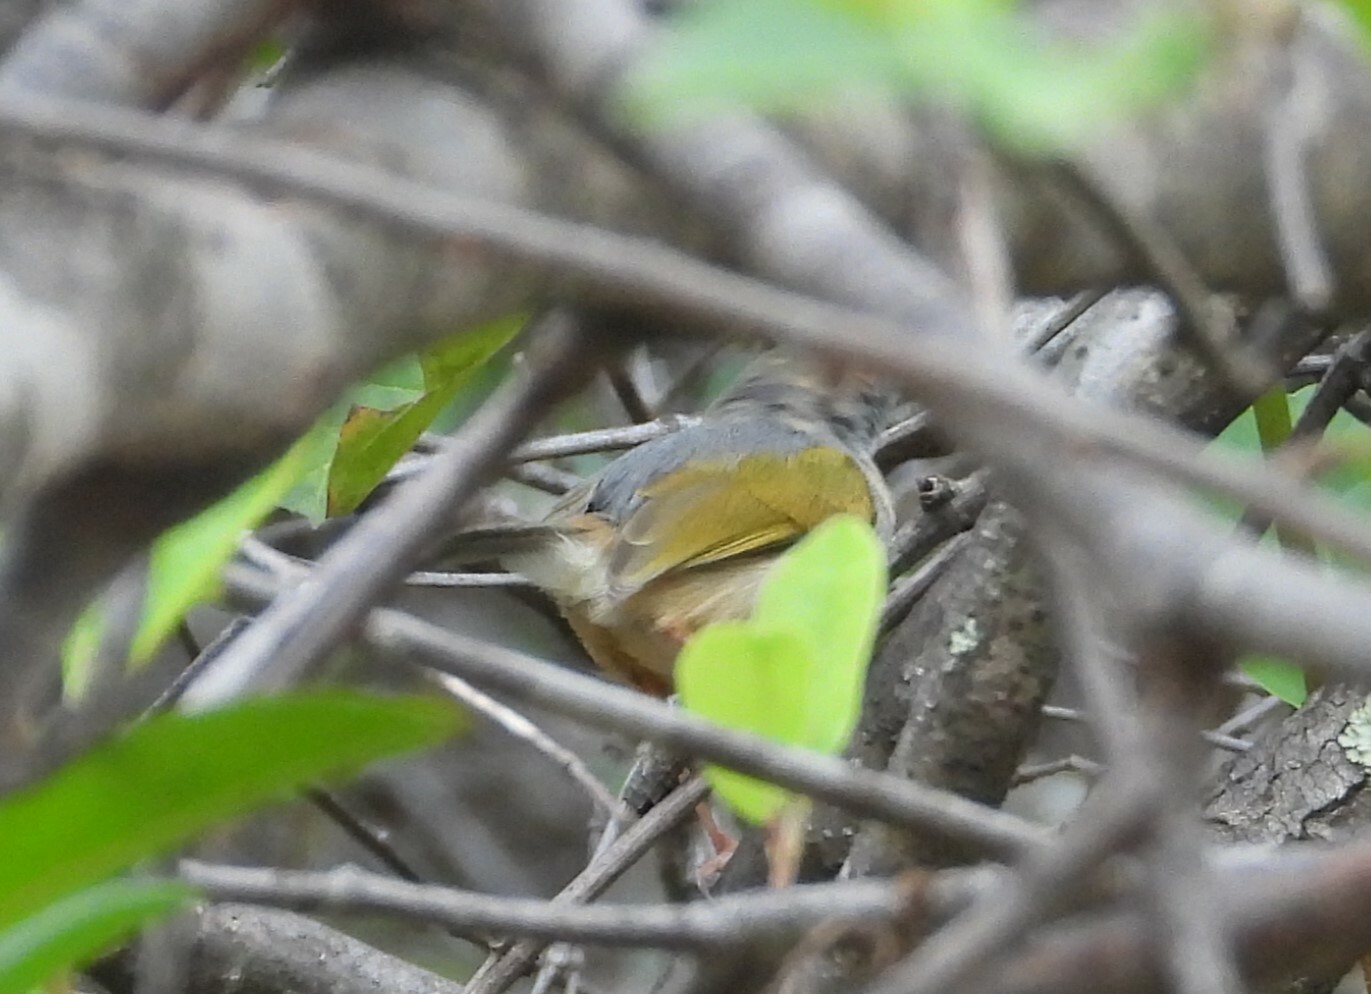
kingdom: Animalia
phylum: Chordata
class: Aves
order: Passeriformes
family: Cisticolidae
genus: Camaroptera
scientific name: Camaroptera brachyura
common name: Green-backed camaroptera
